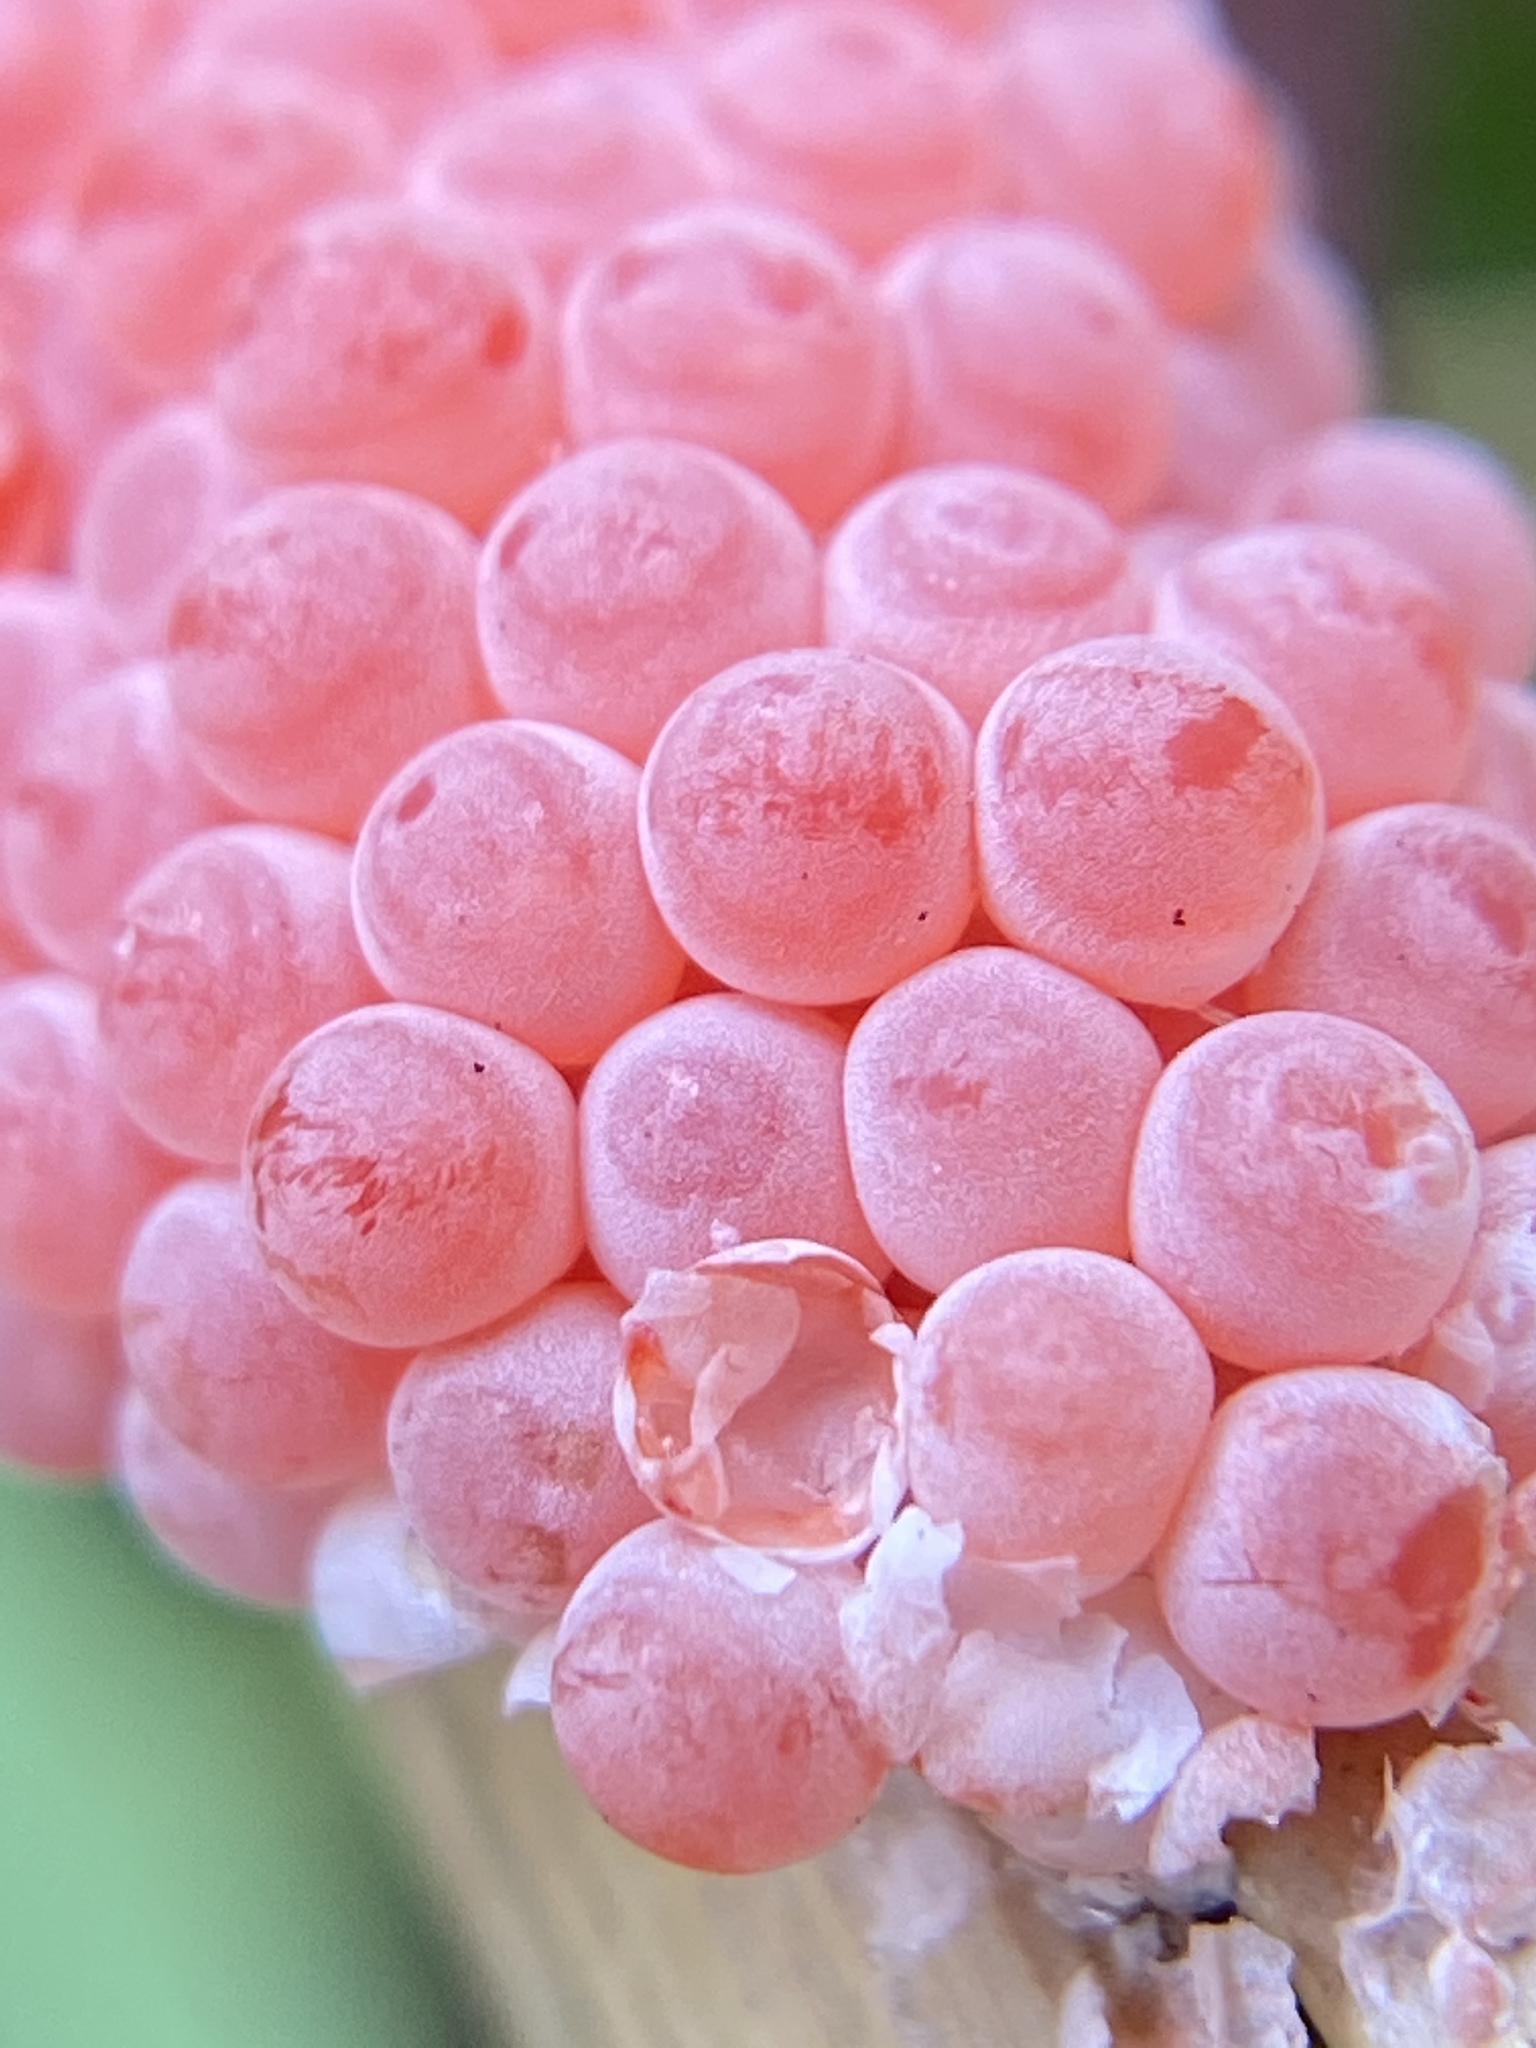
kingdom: Animalia
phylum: Mollusca
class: Gastropoda
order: Architaenioglossa
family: Ampullariidae
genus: Pomacea
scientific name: Pomacea maculata
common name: Giant applesnail
